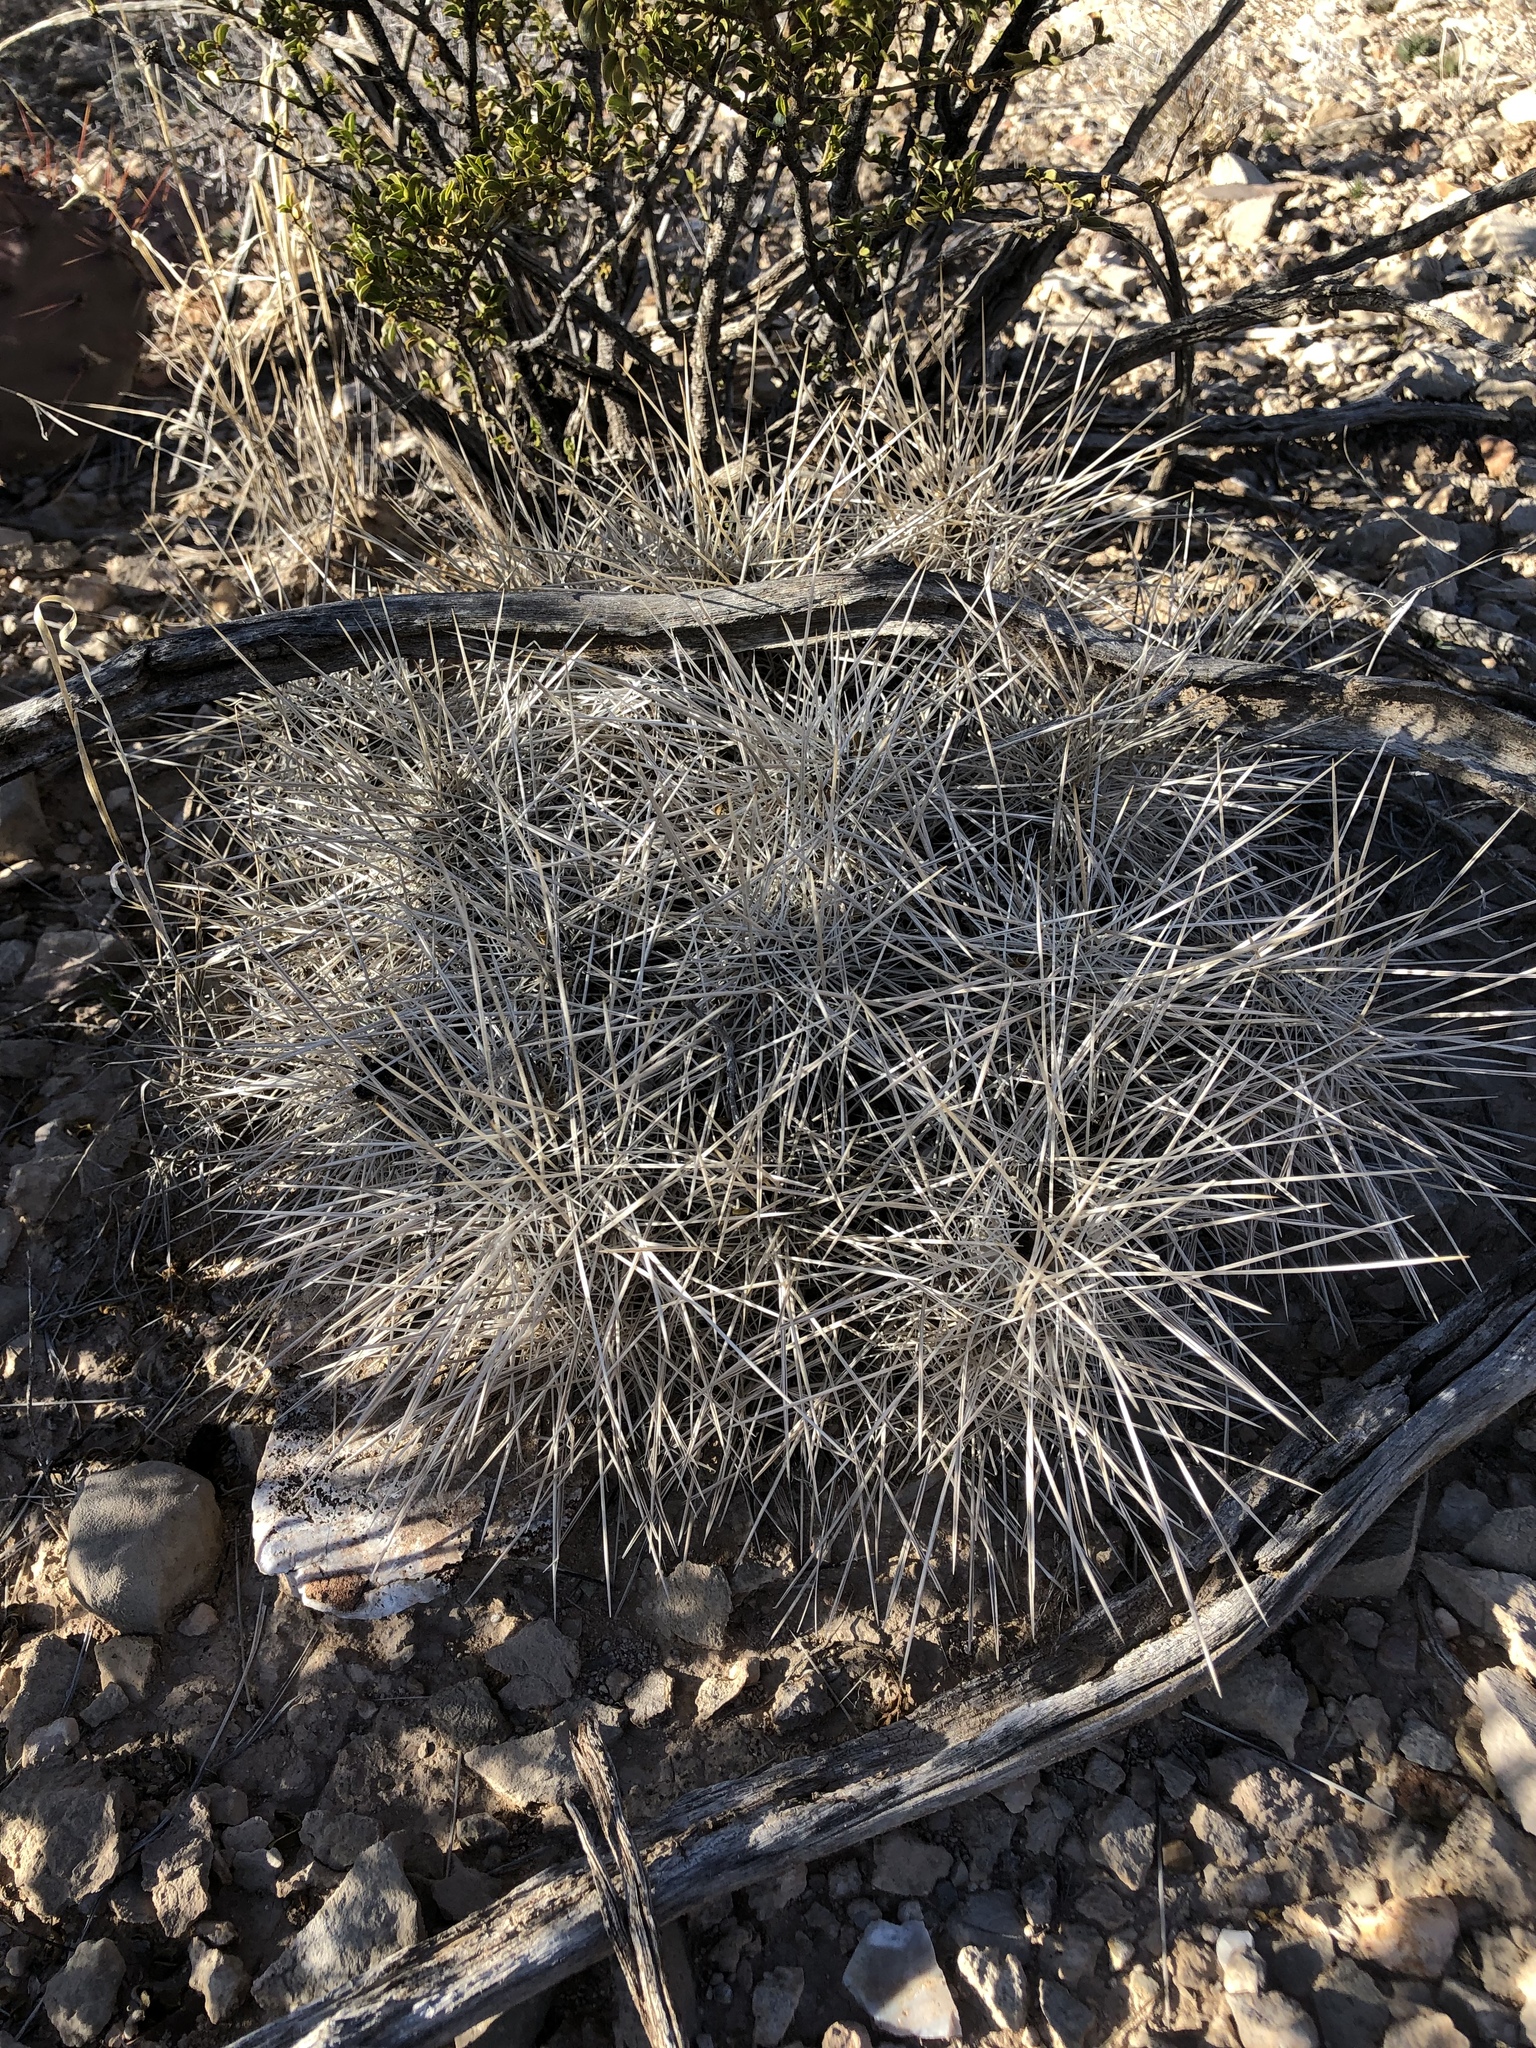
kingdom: Plantae
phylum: Tracheophyta
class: Magnoliopsida
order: Caryophyllales
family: Cactaceae
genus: Echinocereus
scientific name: Echinocereus stramineus
